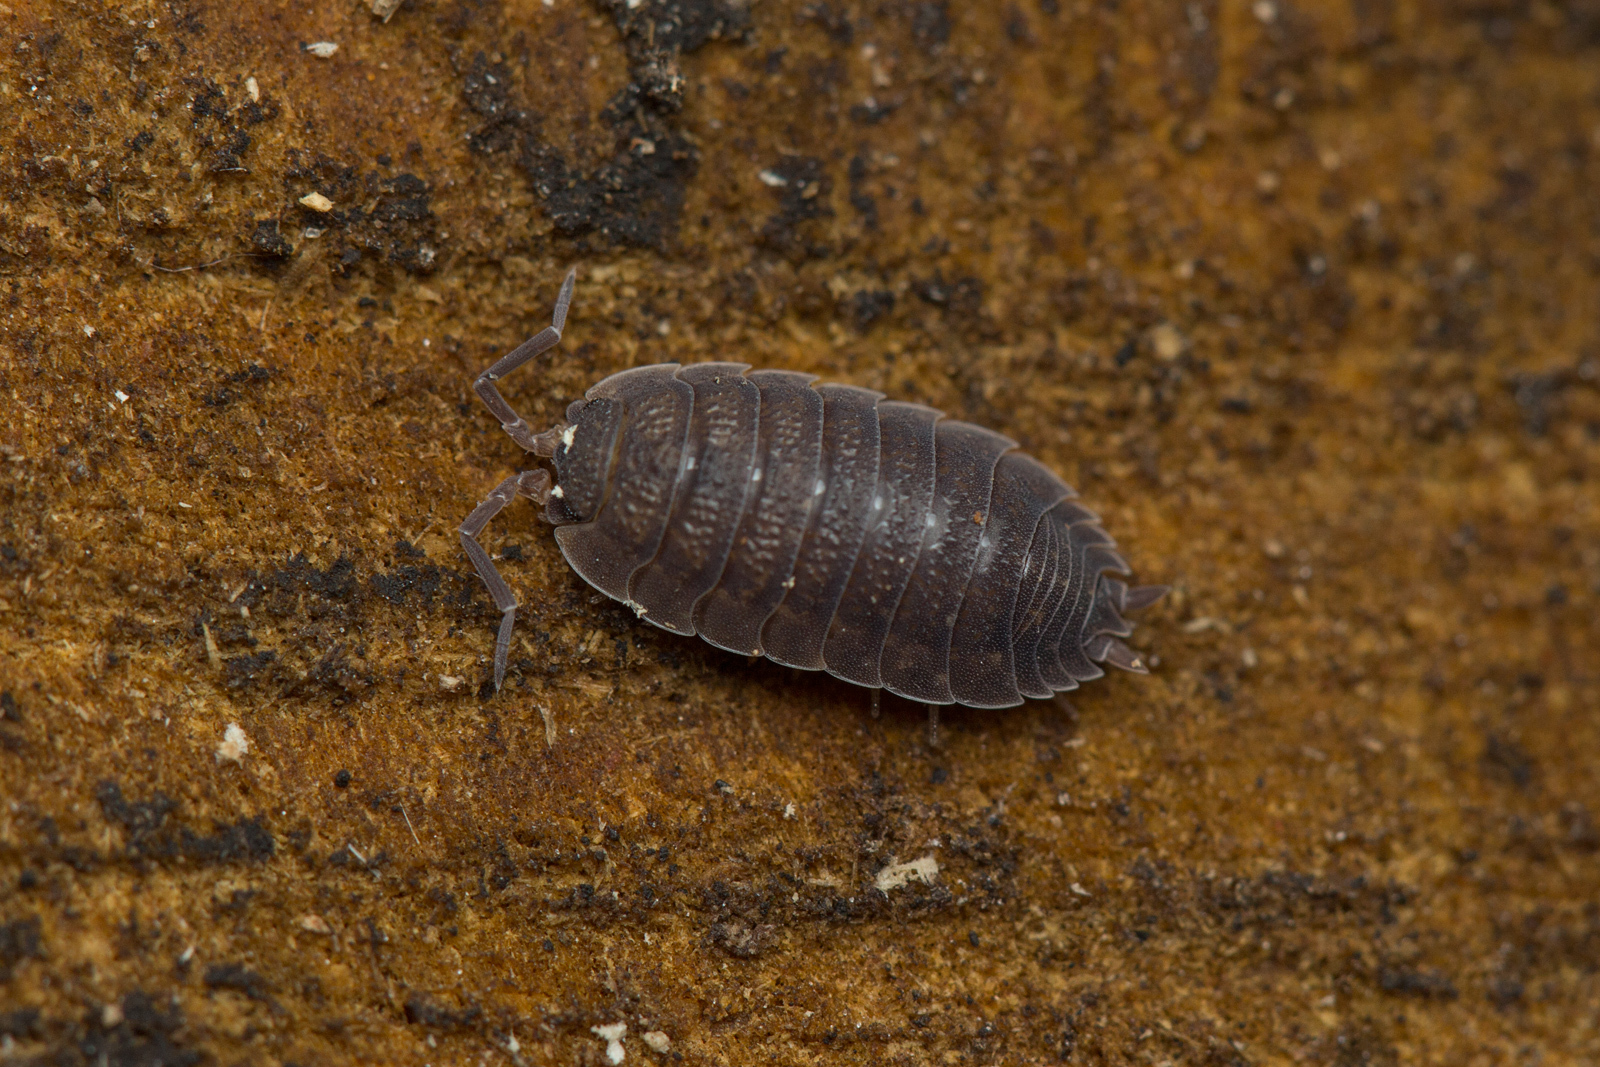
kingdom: Animalia
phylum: Arthropoda
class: Malacostraca
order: Isopoda
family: Porcellionidae
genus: Porcellio
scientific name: Porcellio scaber
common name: Common rough woodlouse
